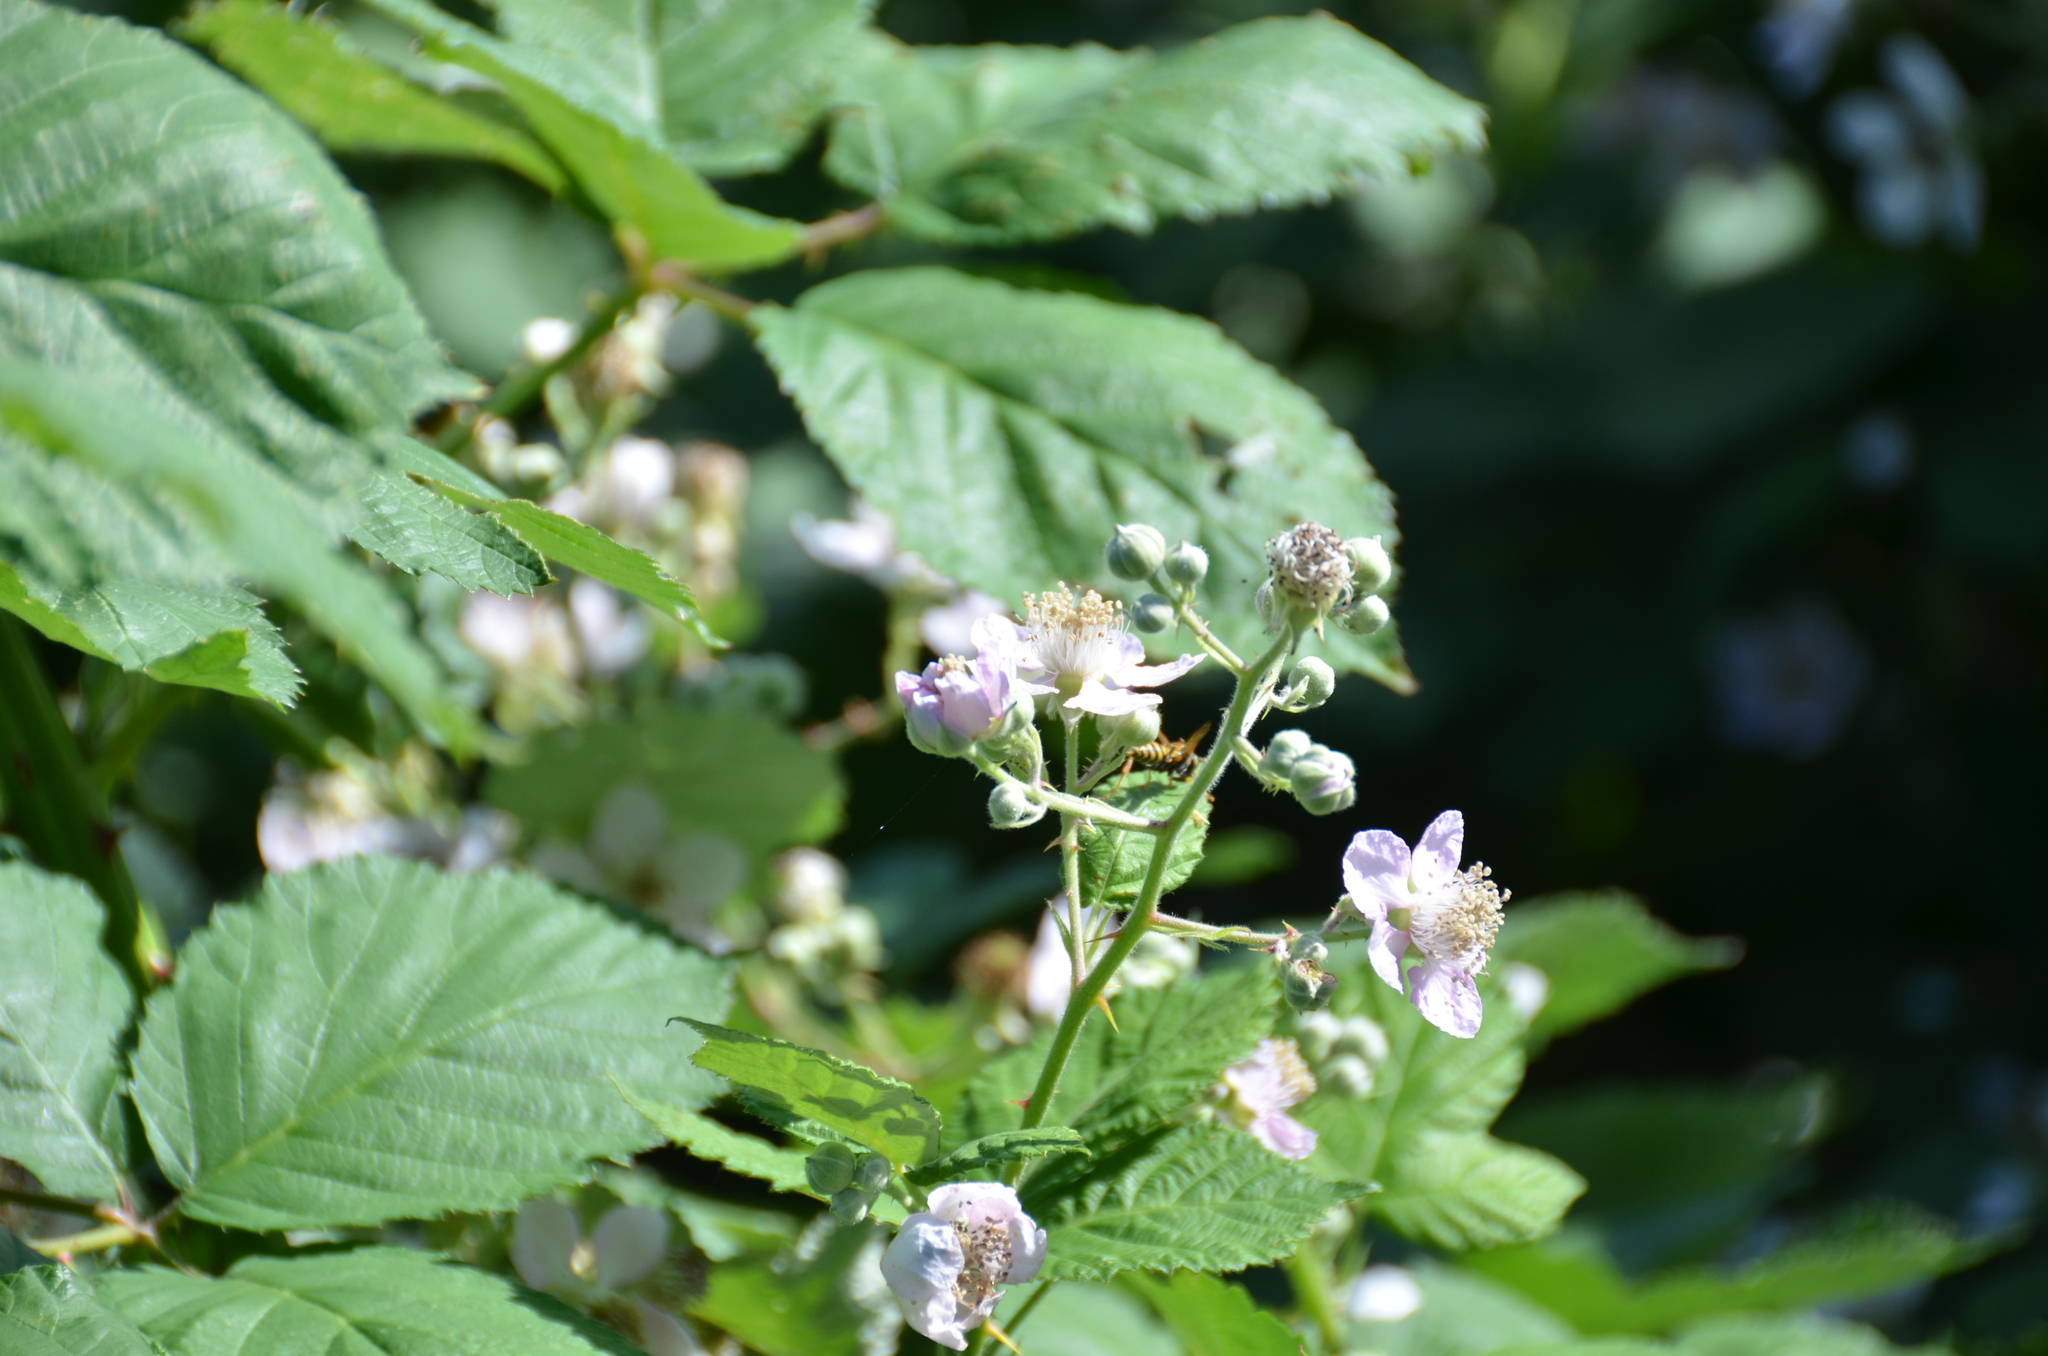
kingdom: Animalia
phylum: Arthropoda
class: Insecta
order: Hymenoptera
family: Eumenidae
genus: Polistes
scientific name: Polistes dominula
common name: Paper wasp
